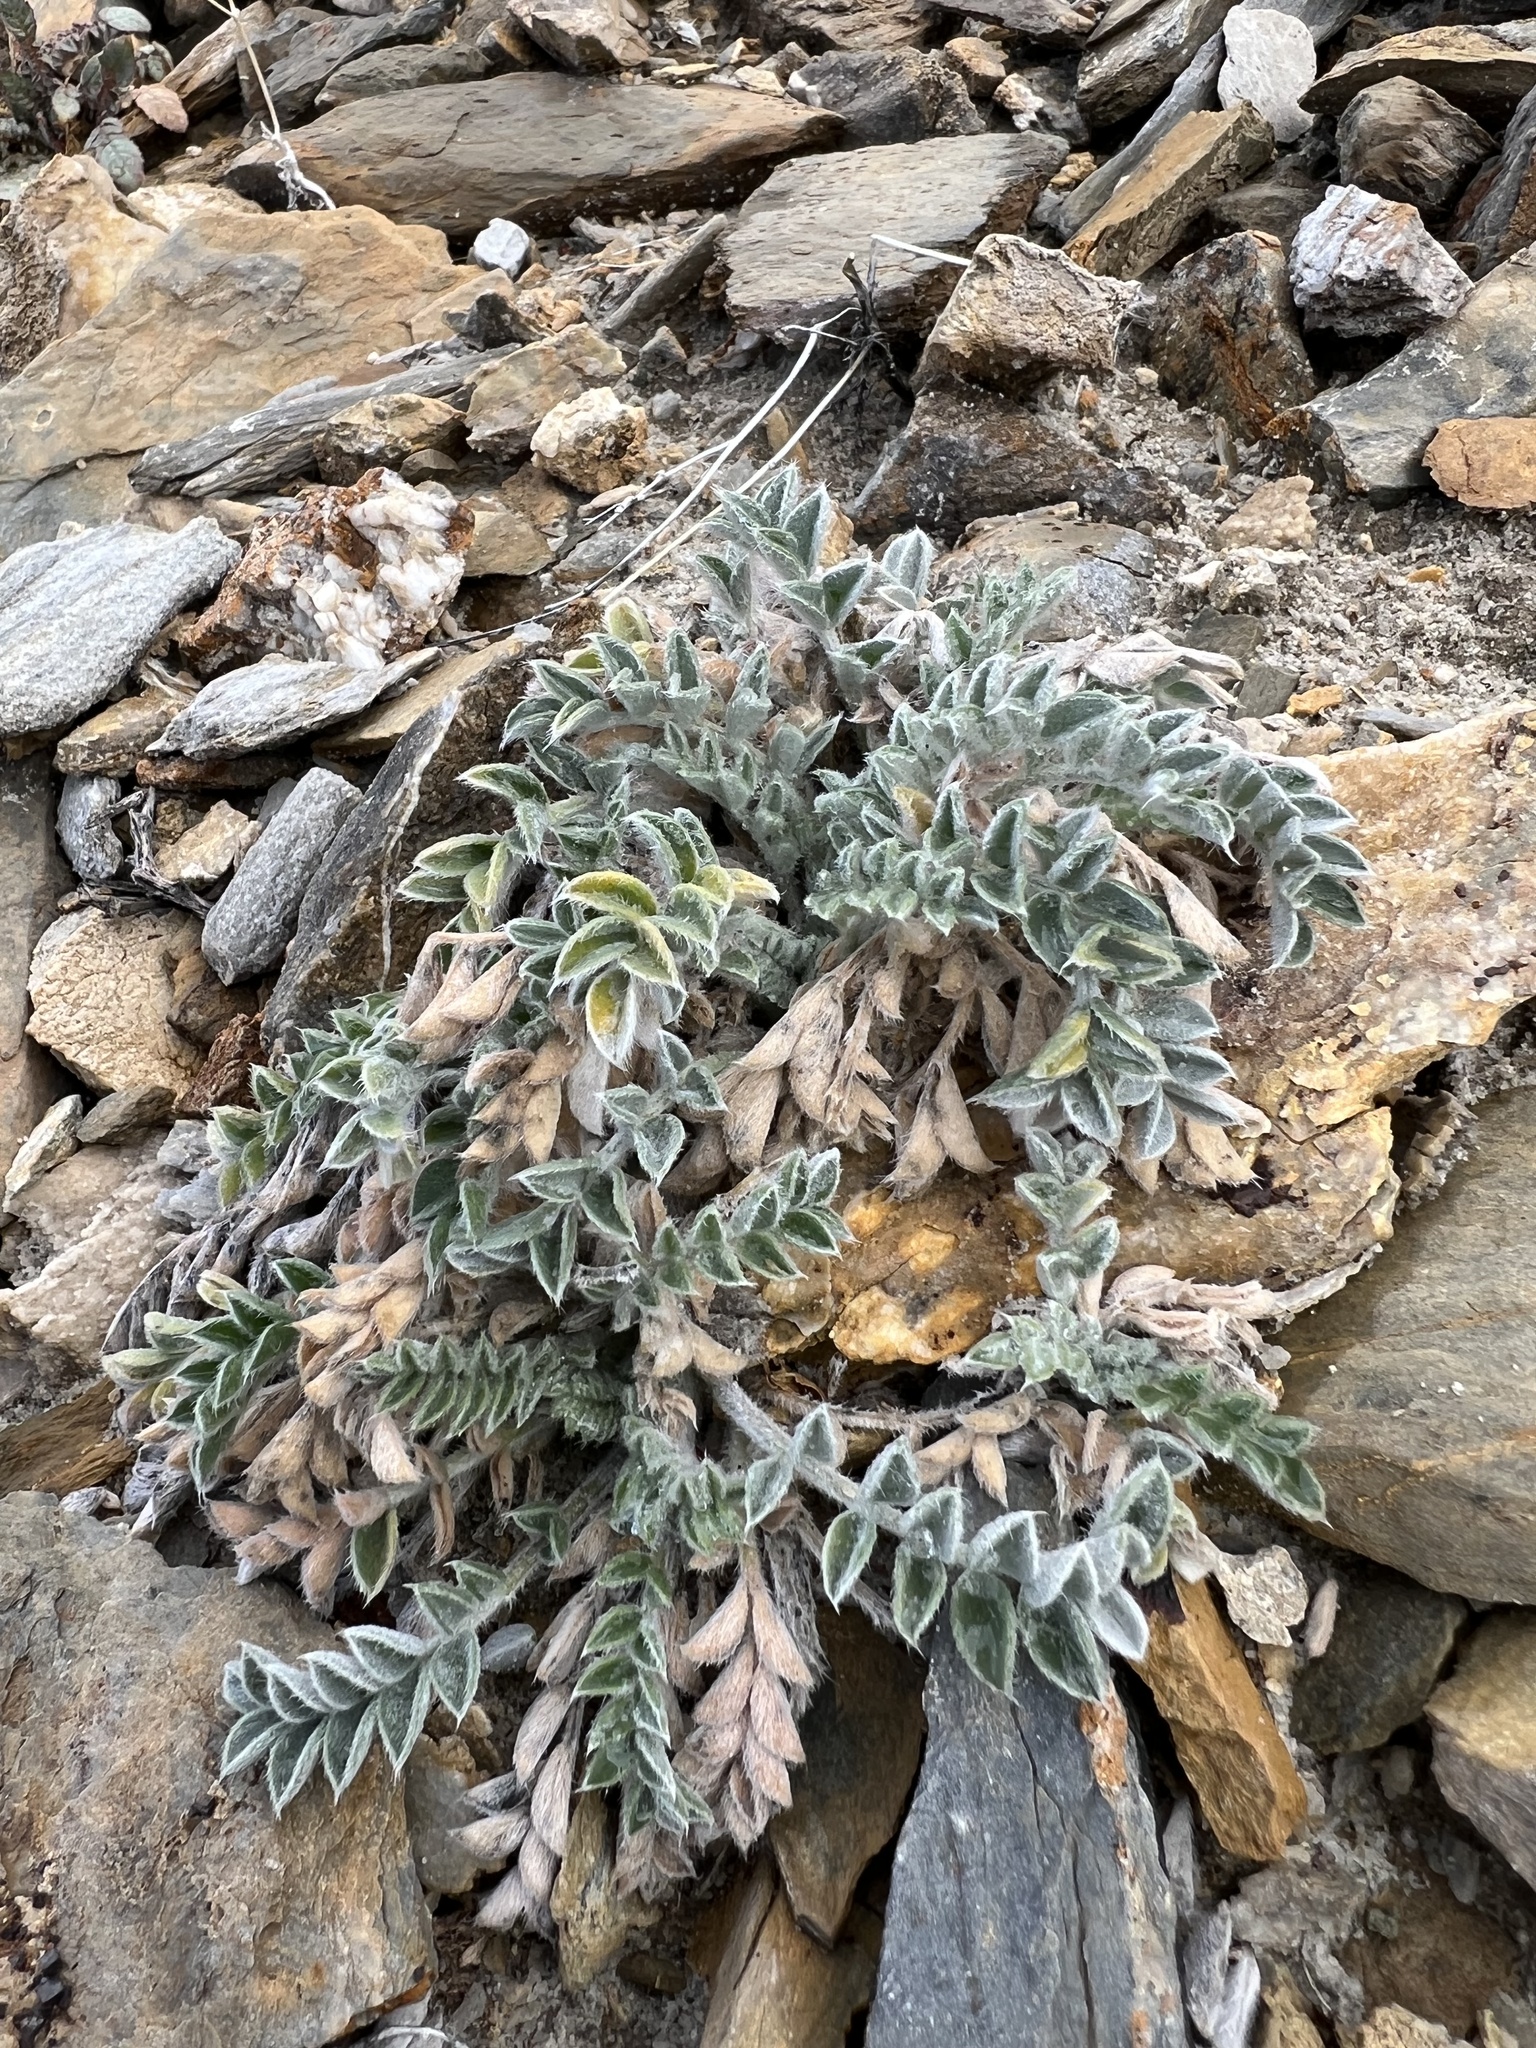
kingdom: Plantae
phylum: Tracheophyta
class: Magnoliopsida
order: Fabales
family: Fabaceae
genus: Astragalus
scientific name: Astragalus coccineus
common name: Scarlet milk-vetch
